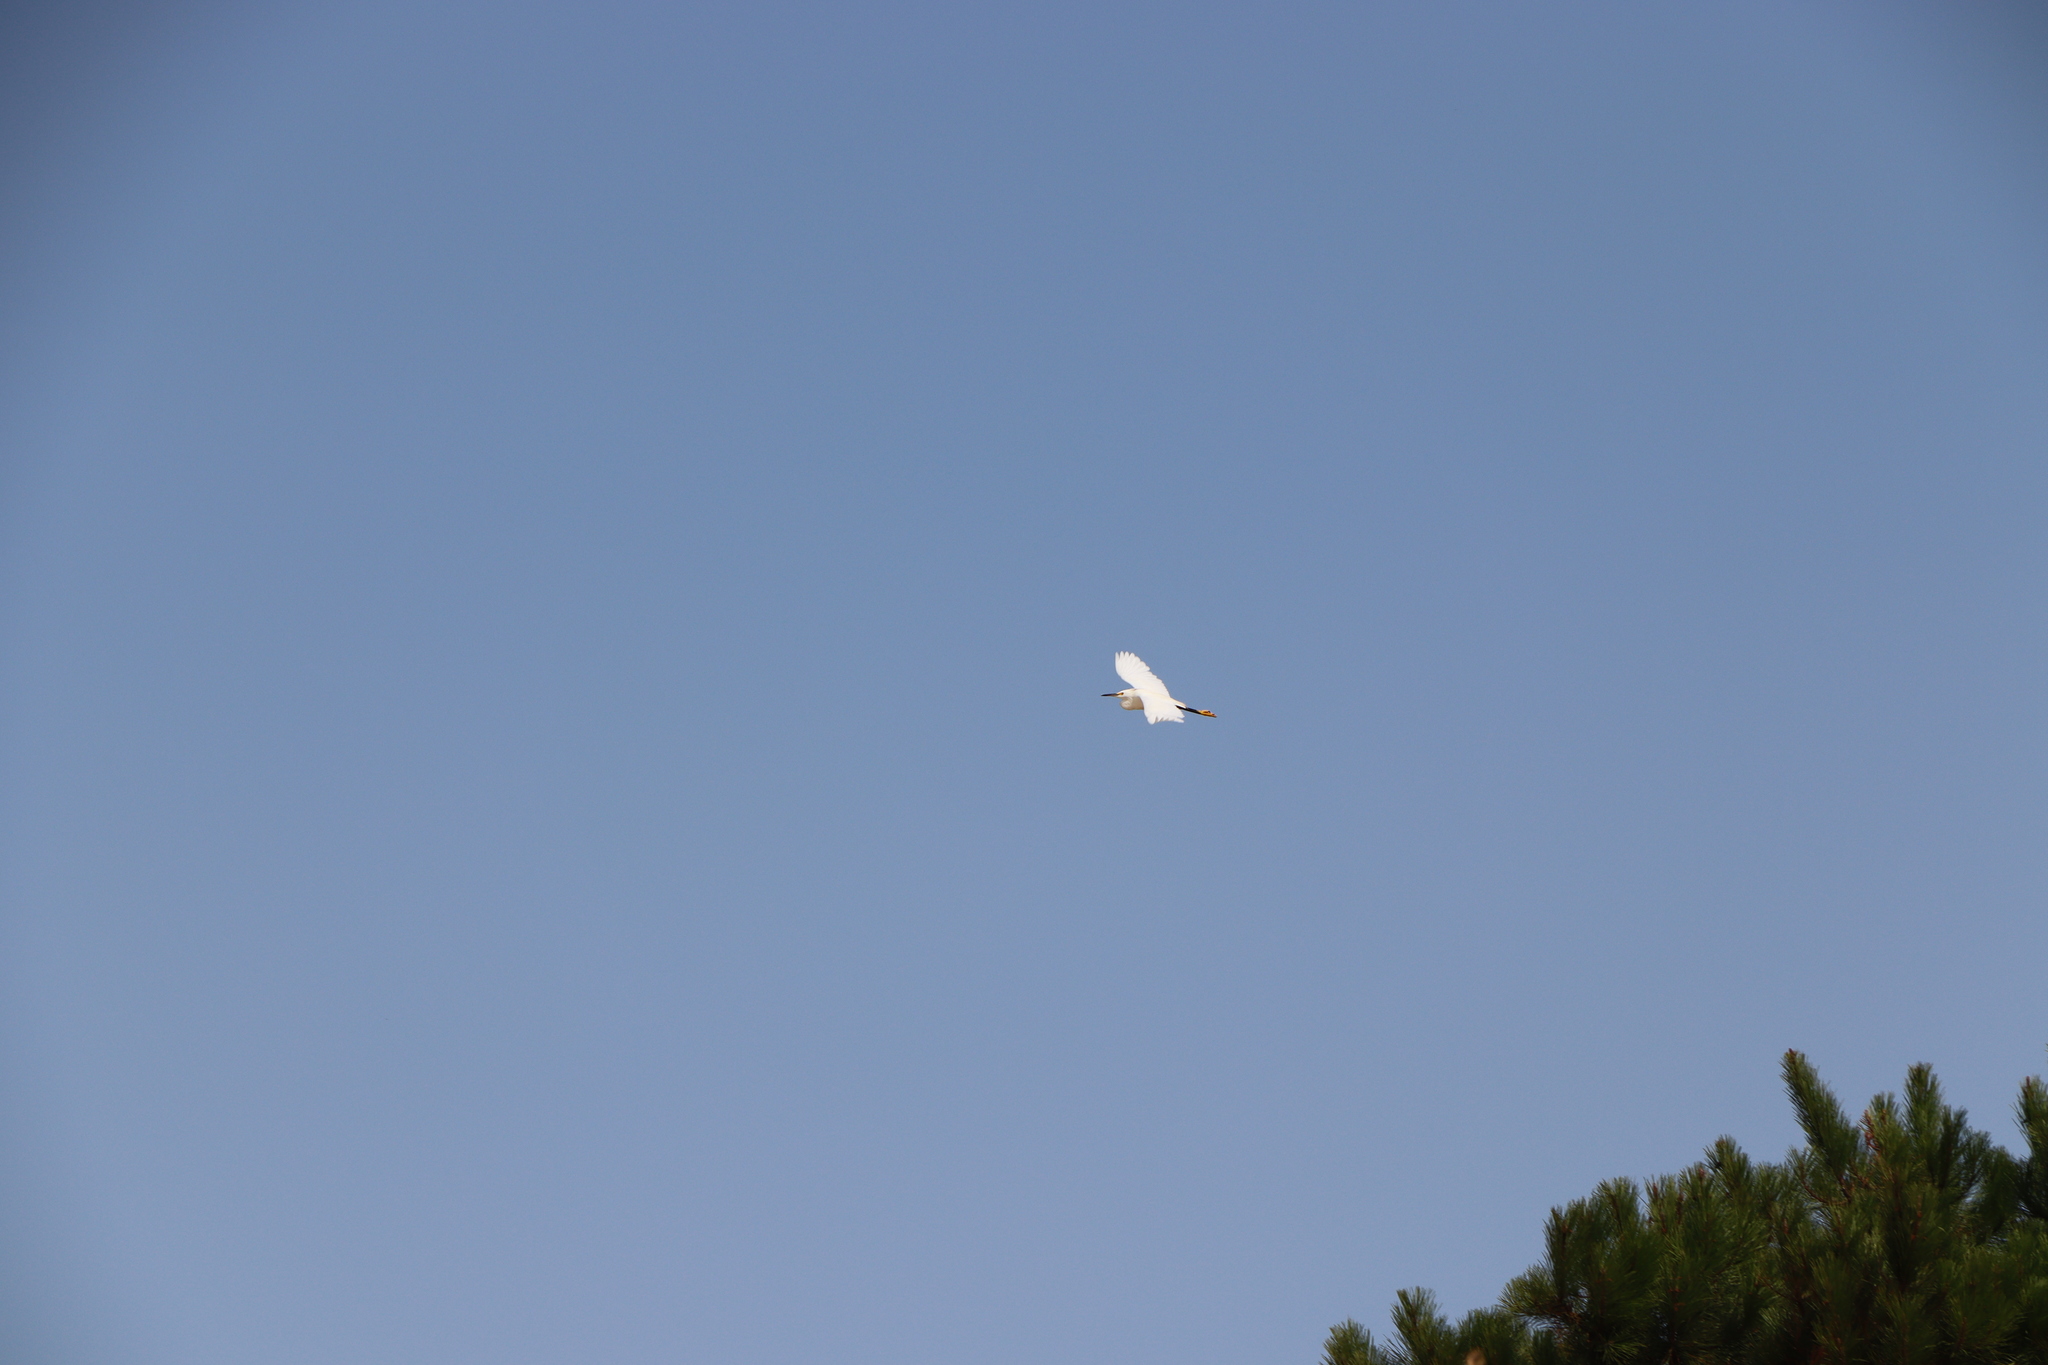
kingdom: Animalia
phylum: Chordata
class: Aves
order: Pelecaniformes
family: Ardeidae
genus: Egretta
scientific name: Egretta thula
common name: Snowy egret
